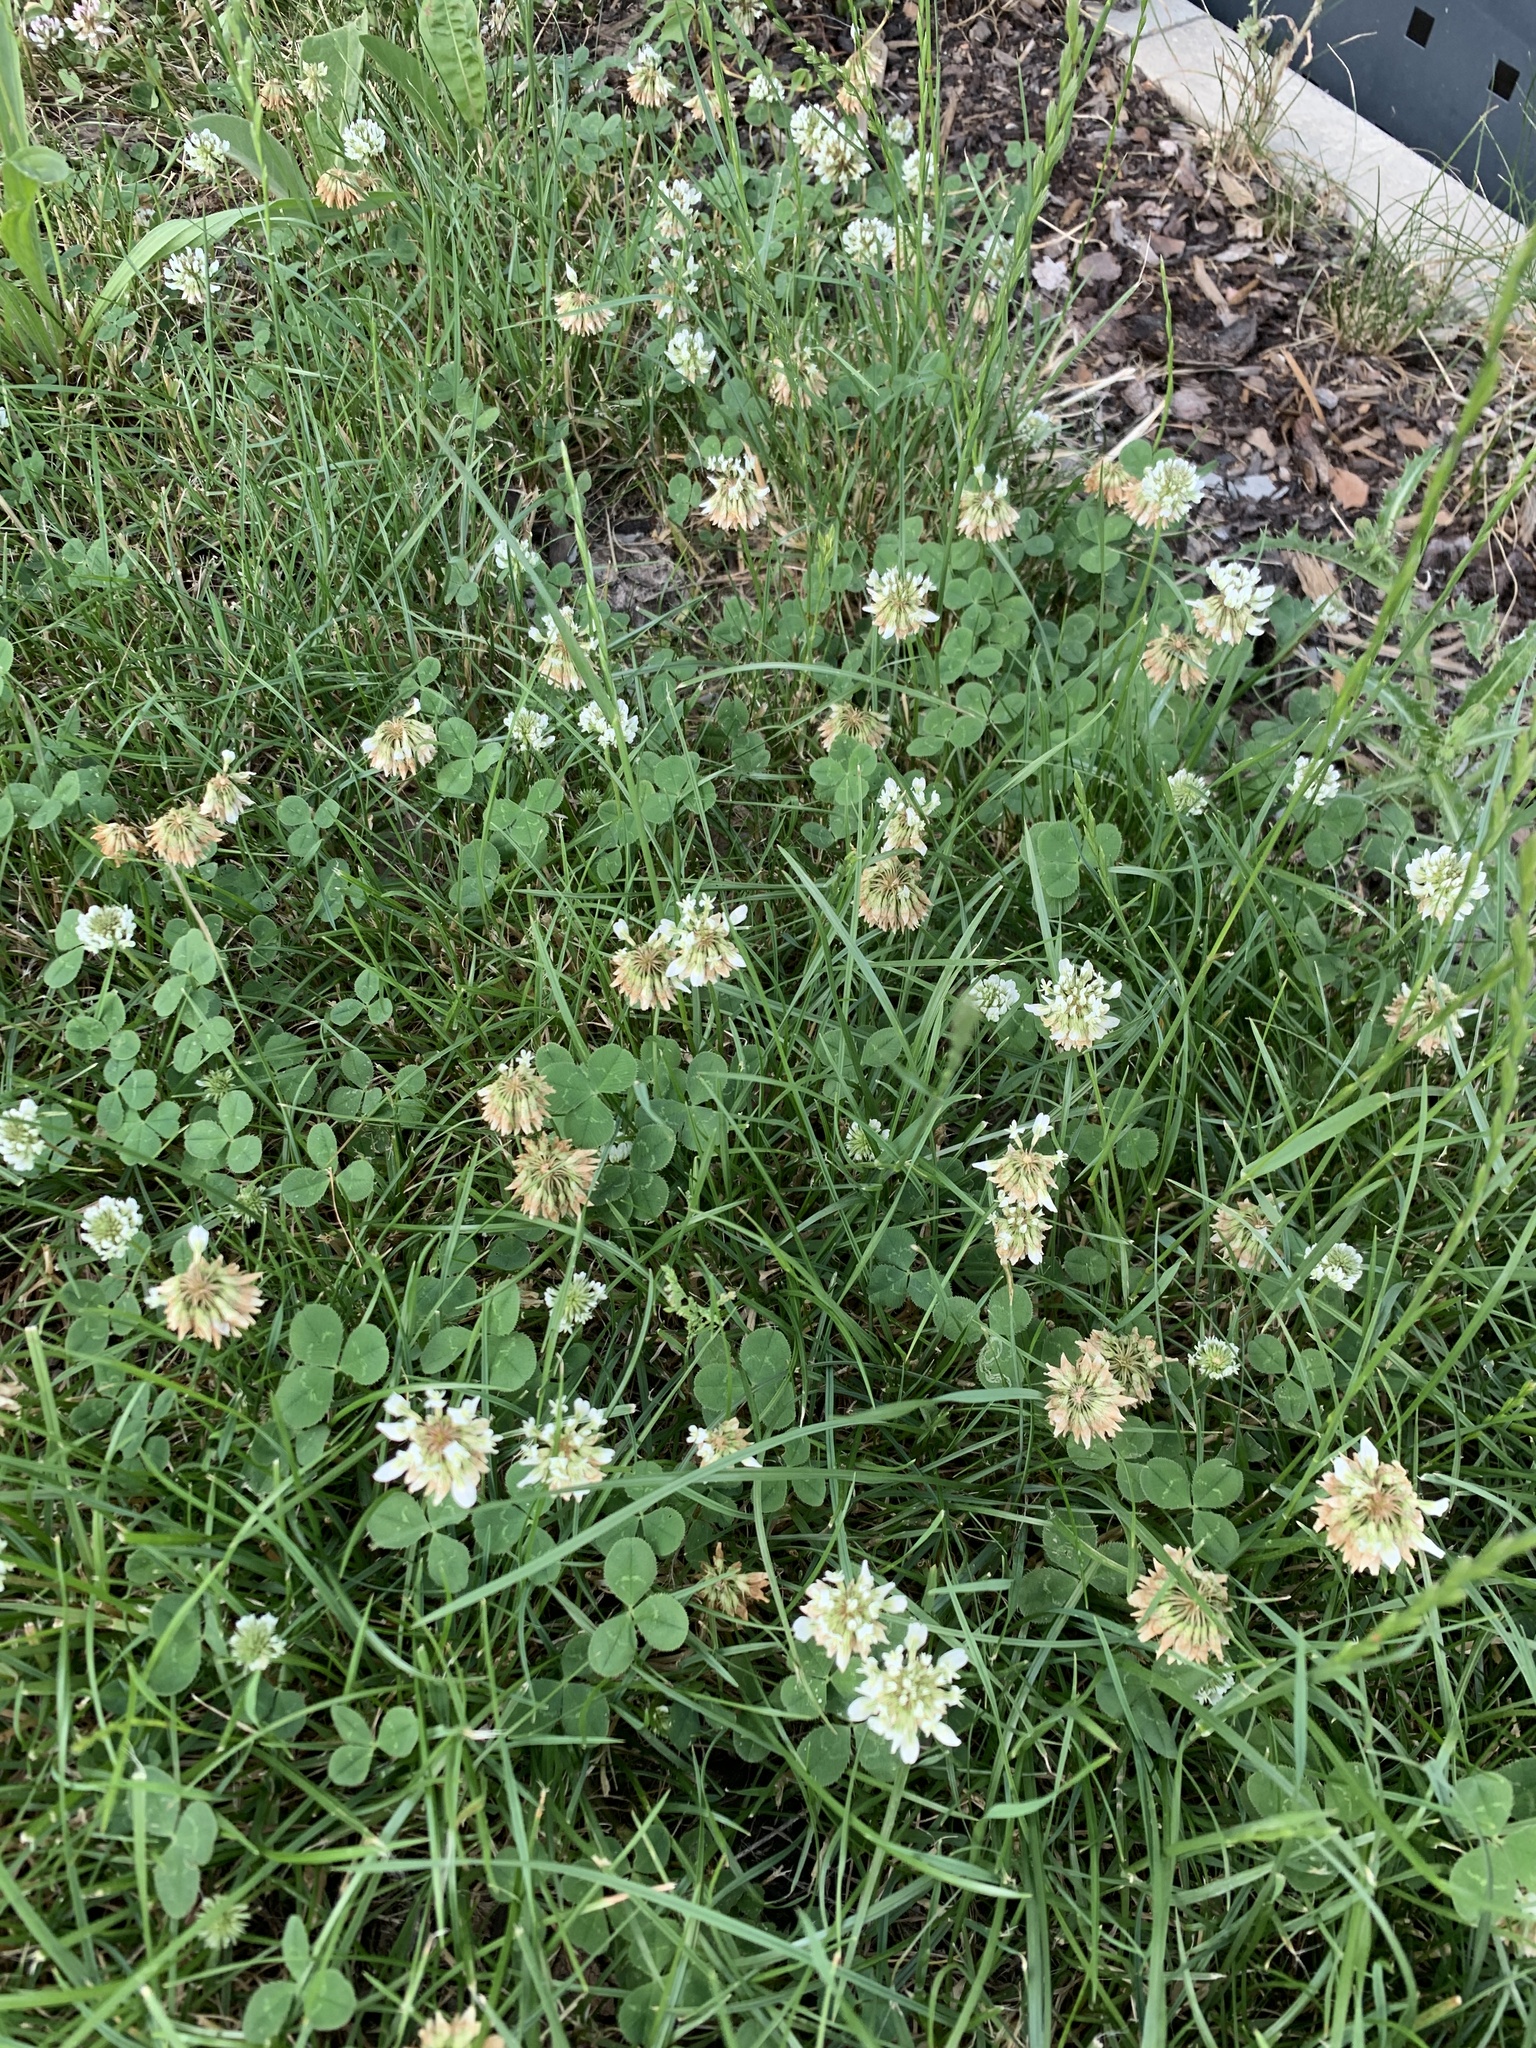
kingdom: Plantae
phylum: Tracheophyta
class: Magnoliopsida
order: Fabales
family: Fabaceae
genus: Trifolium
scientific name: Trifolium repens
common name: White clover
